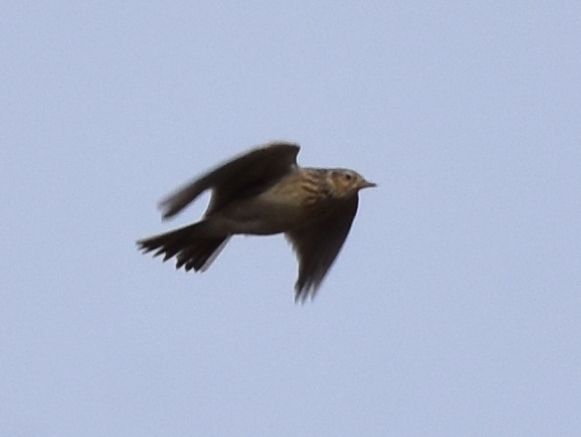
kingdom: Animalia
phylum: Chordata
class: Aves
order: Passeriformes
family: Alaudidae
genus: Alauda
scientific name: Alauda arvensis
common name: Eurasian skylark
